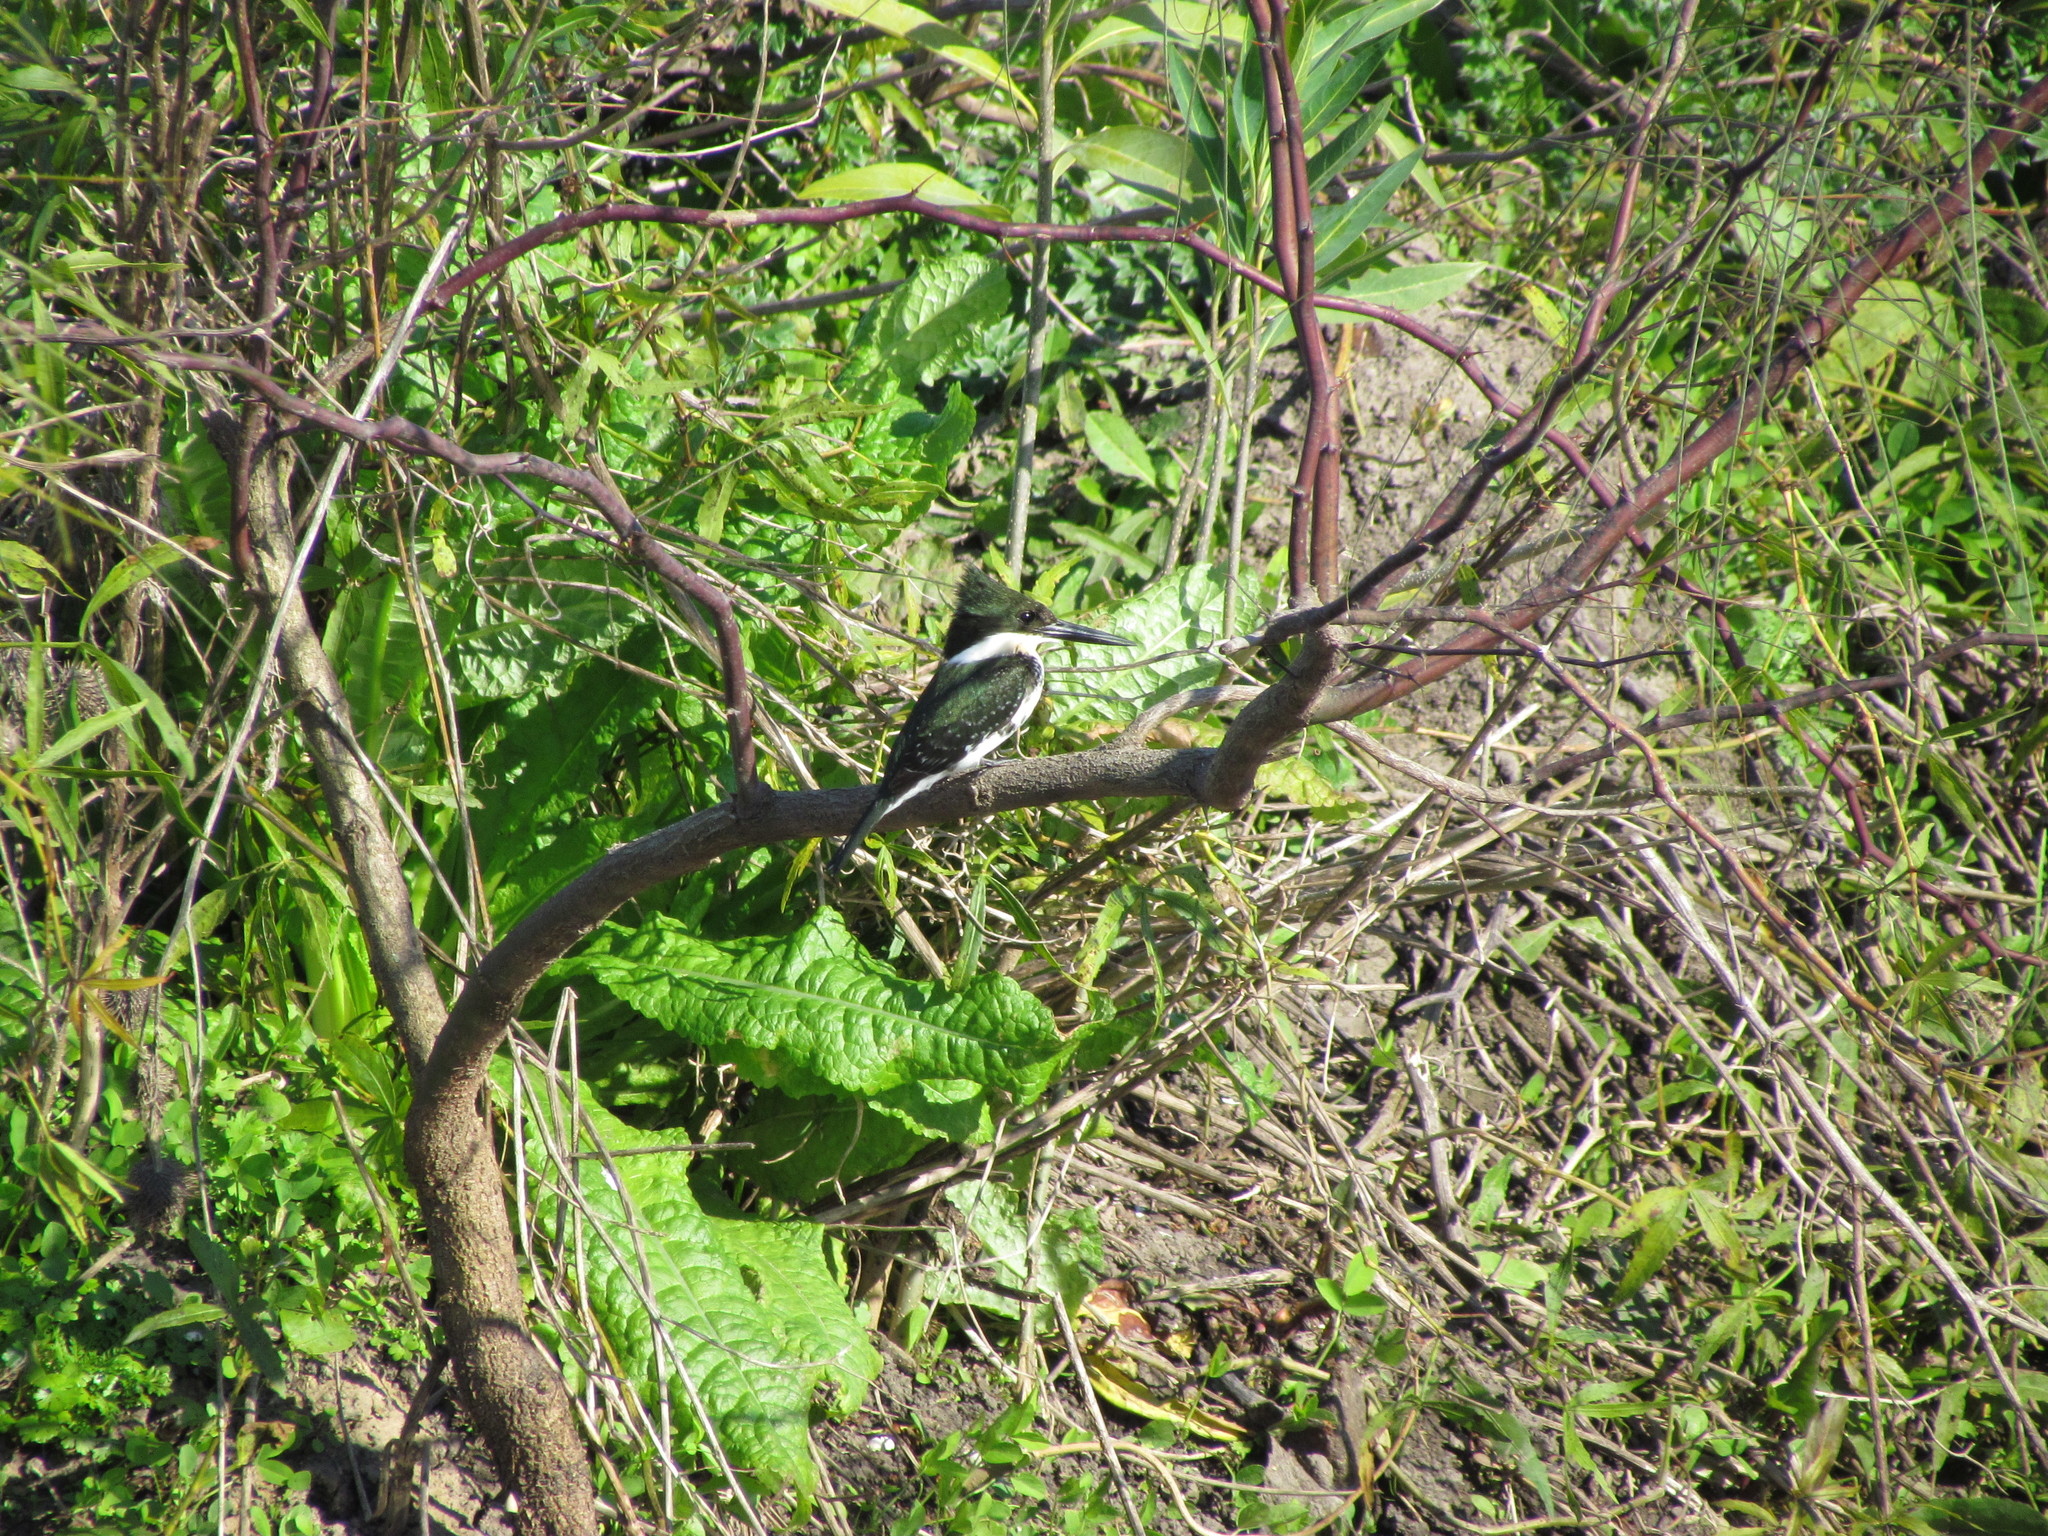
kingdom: Animalia
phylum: Chordata
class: Aves
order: Coraciiformes
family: Alcedinidae
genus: Chloroceryle
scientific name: Chloroceryle americana
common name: Green kingfisher
